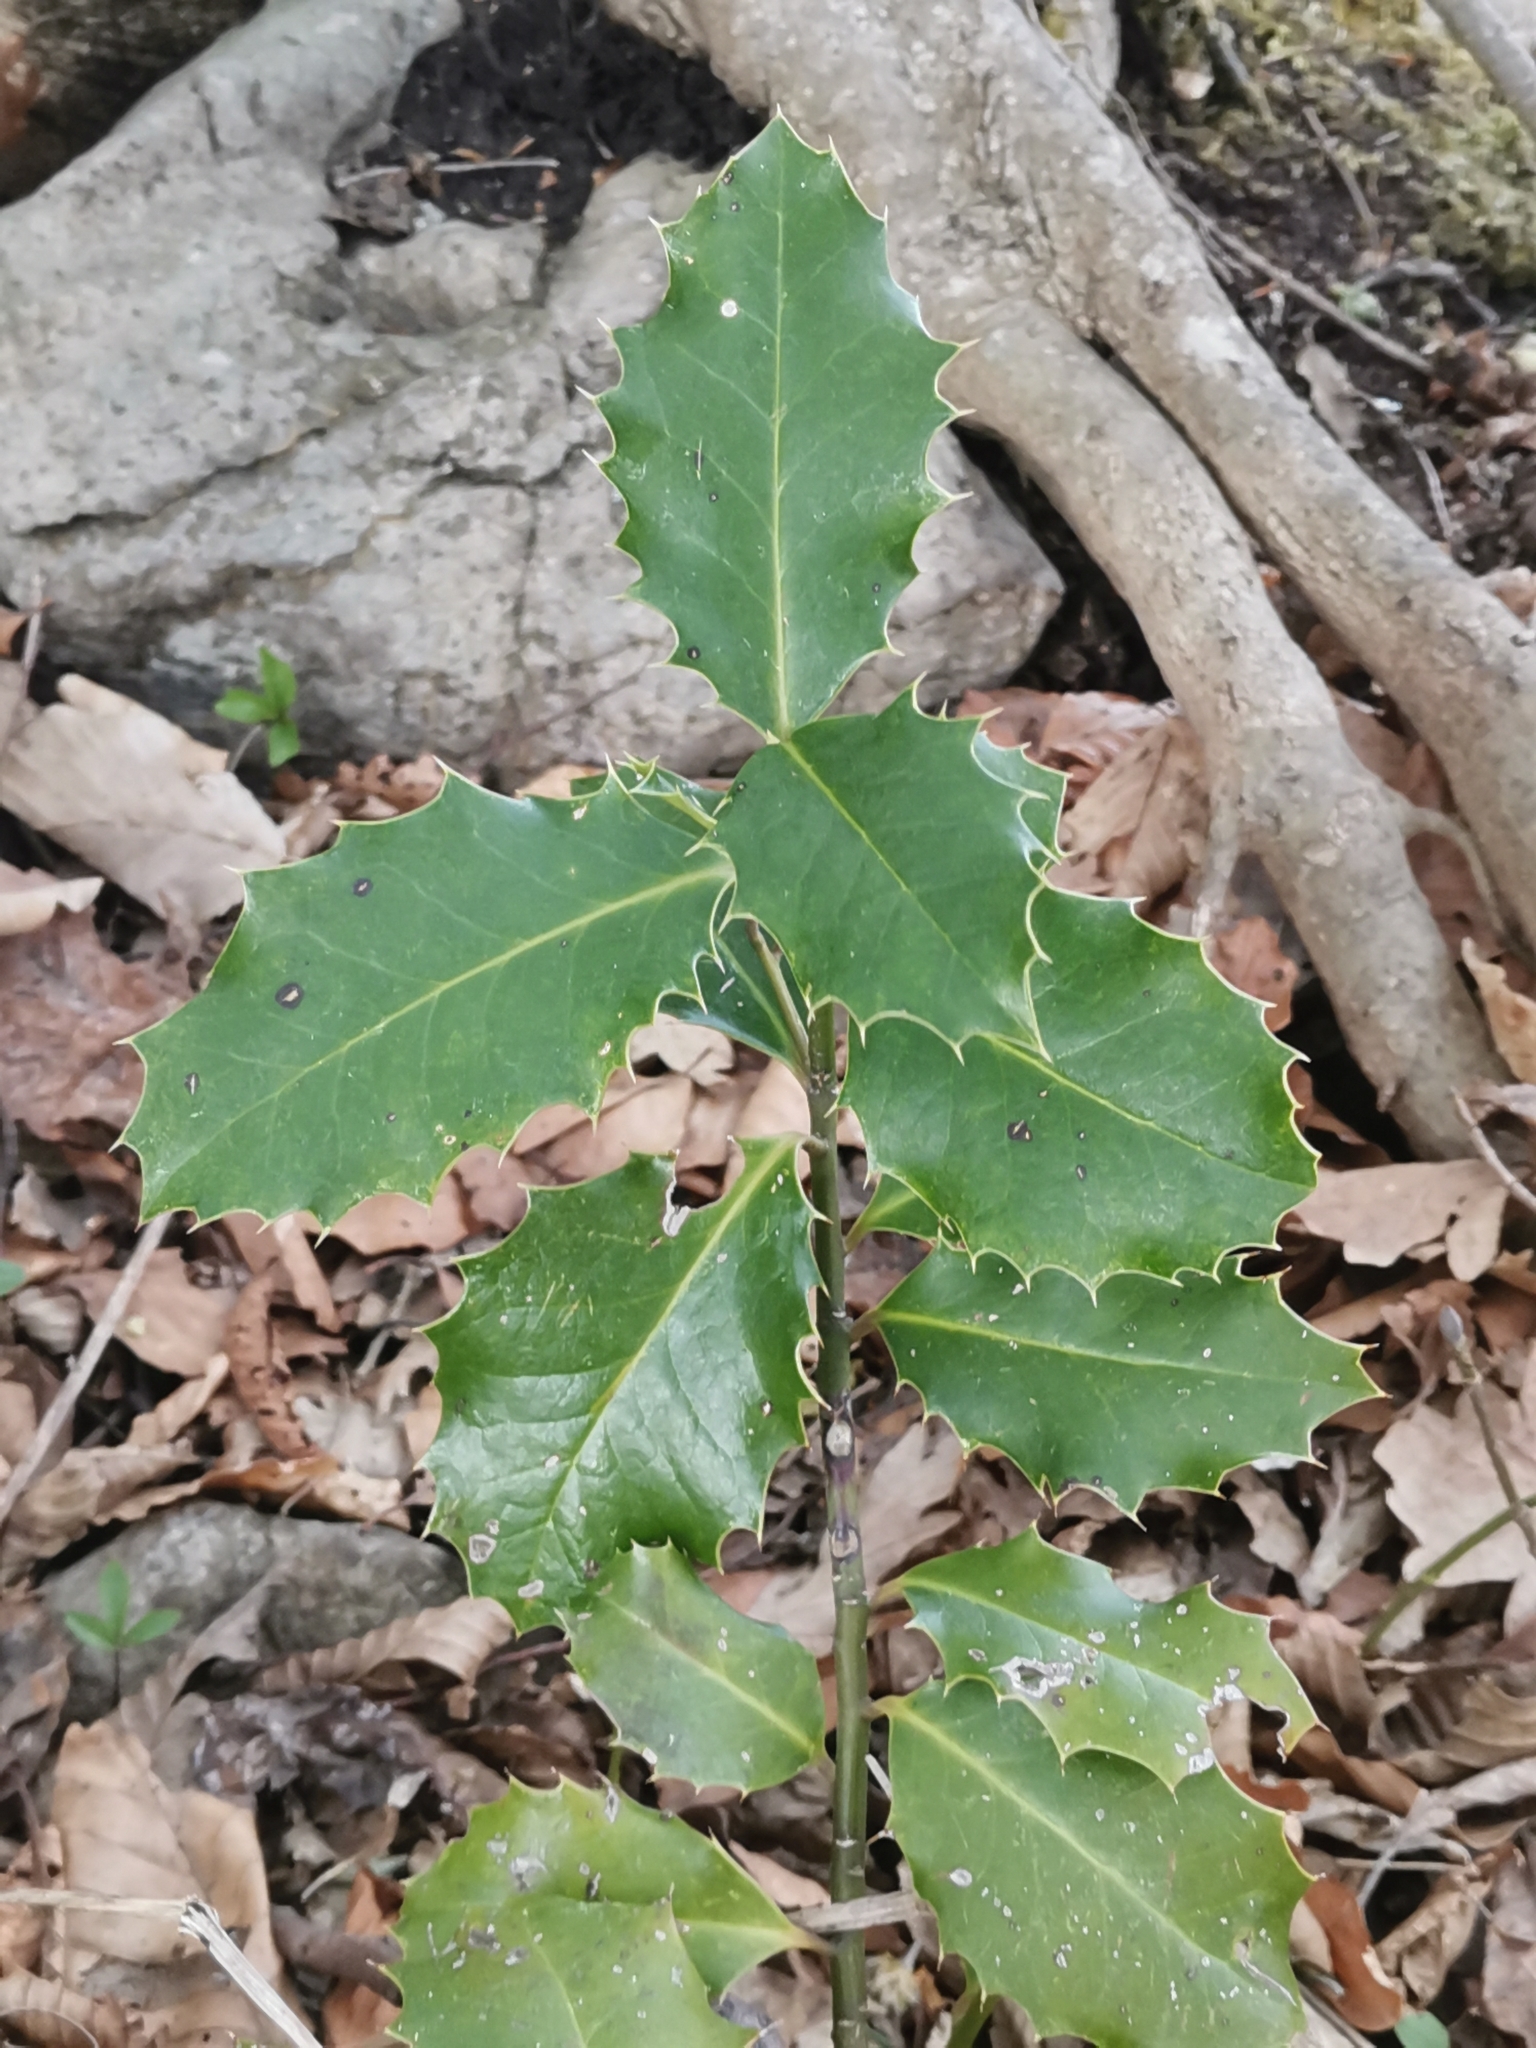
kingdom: Plantae
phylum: Tracheophyta
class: Magnoliopsida
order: Aquifoliales
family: Aquifoliaceae
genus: Ilex
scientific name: Ilex aquifolium
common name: English holly
